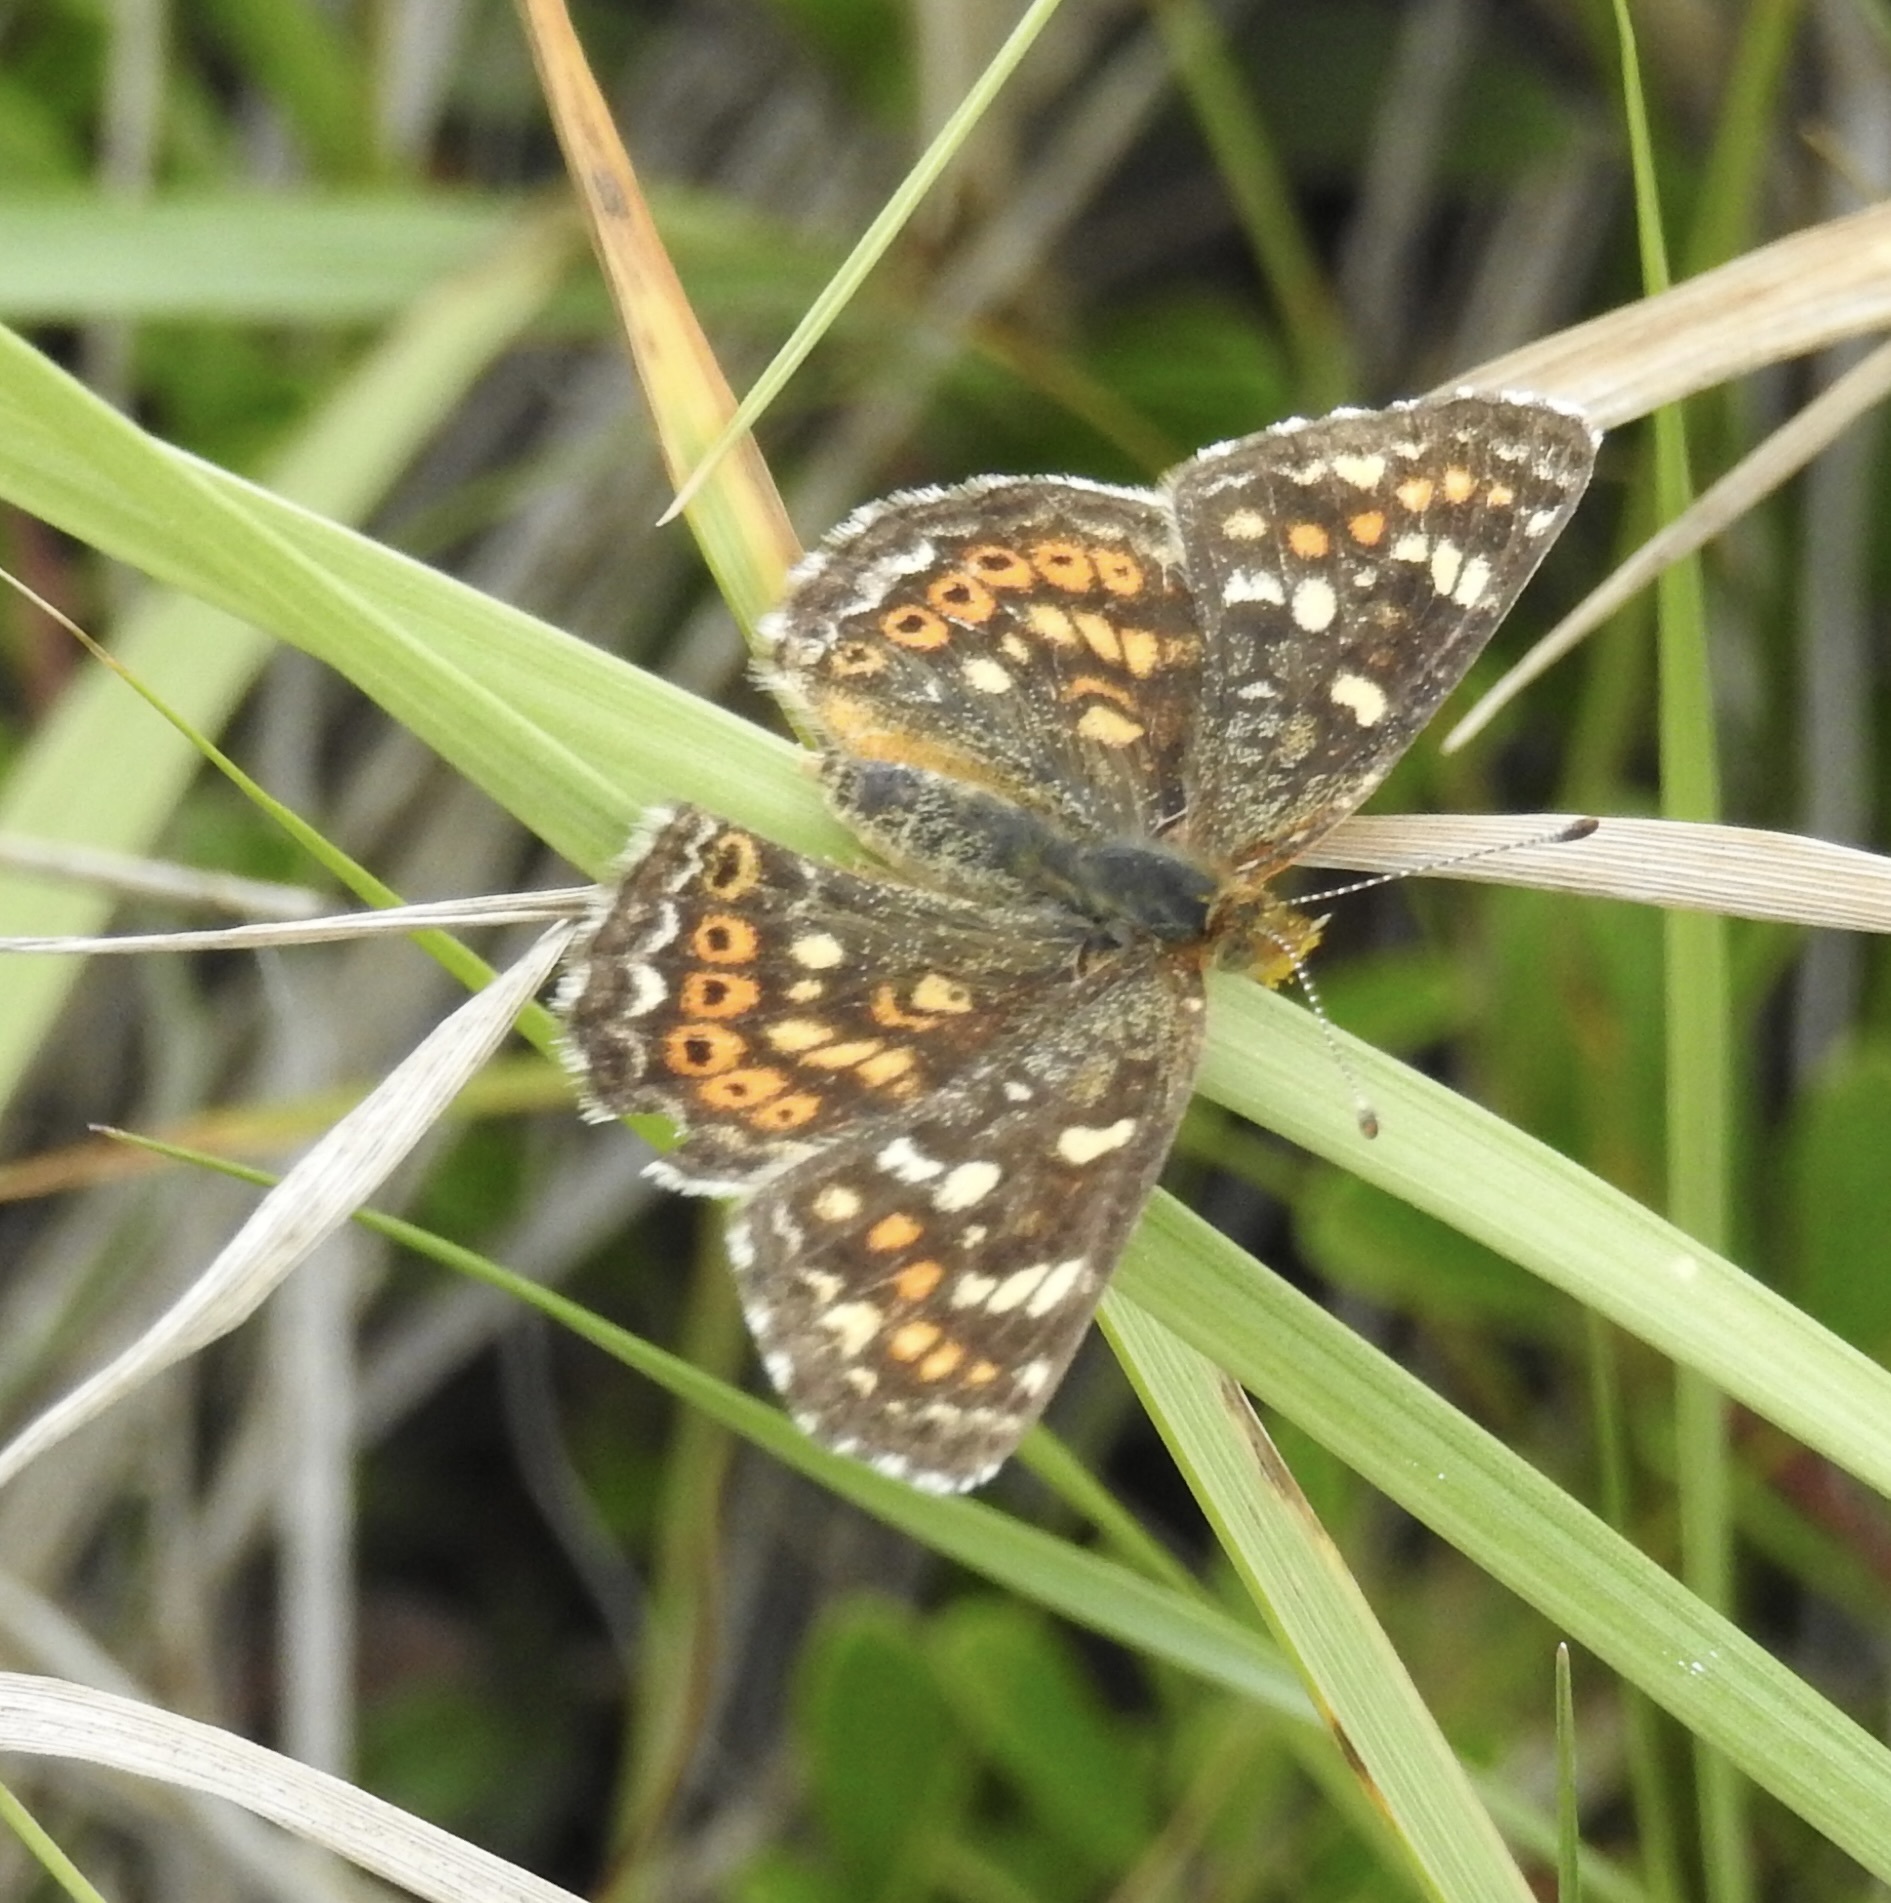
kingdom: Animalia
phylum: Arthropoda
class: Insecta
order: Lepidoptera
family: Nymphalidae
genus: Phyciodes
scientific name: Phyciodes tharos
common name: Pearl crescent
